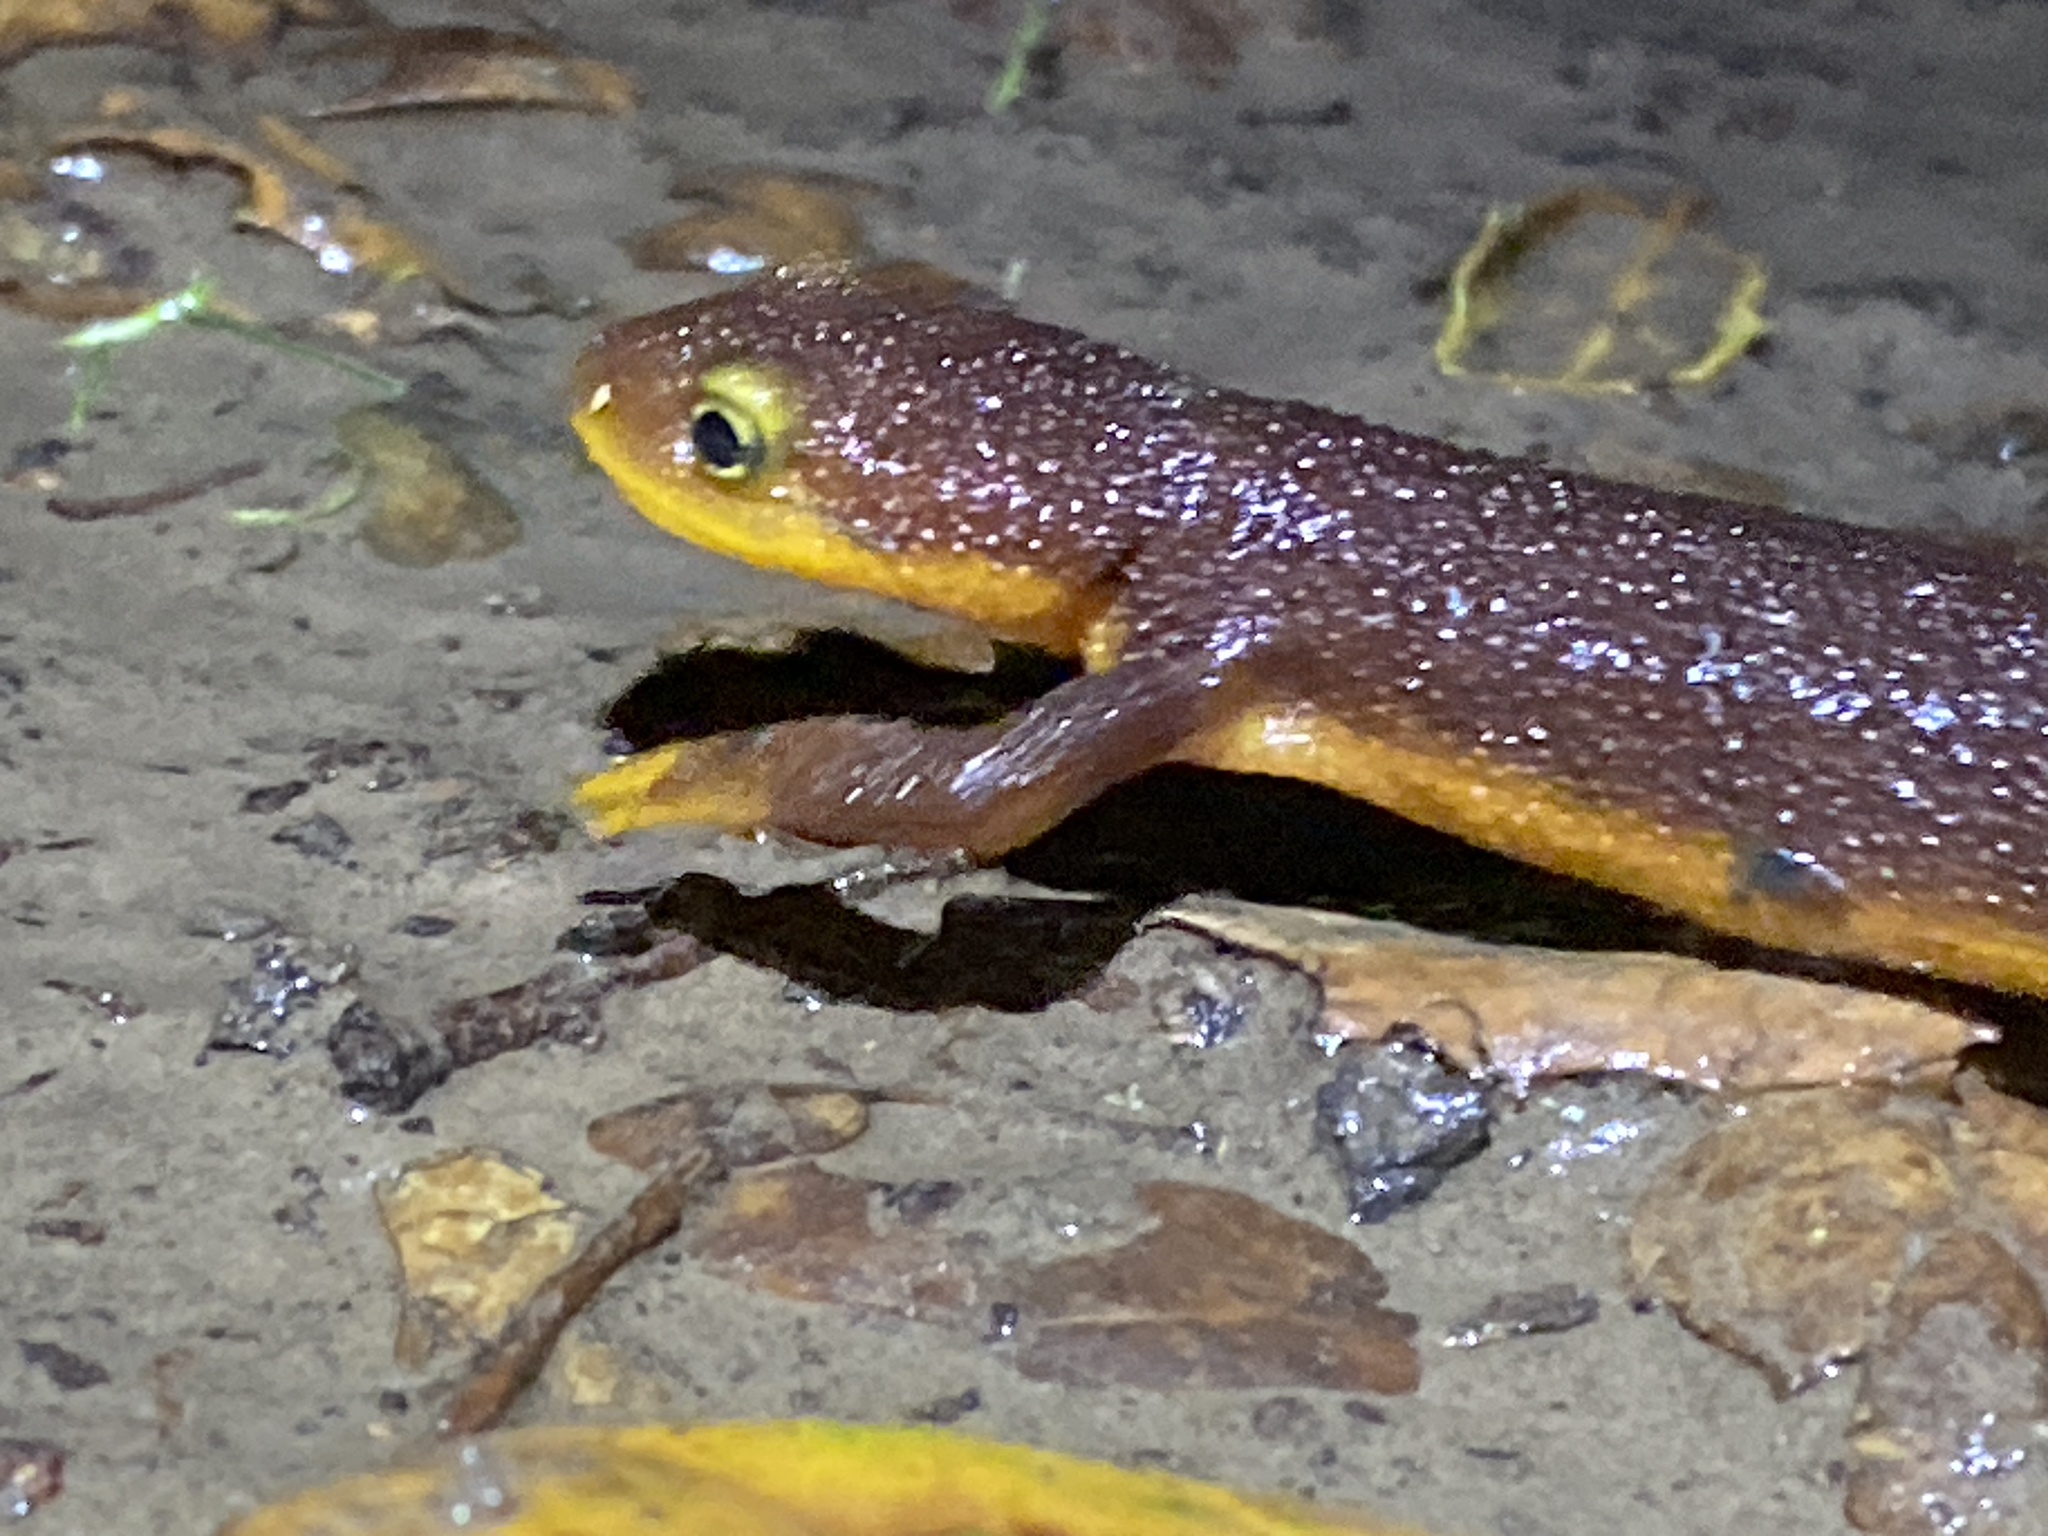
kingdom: Animalia
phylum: Chordata
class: Amphibia
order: Caudata
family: Salamandridae
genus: Taricha
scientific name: Taricha torosa
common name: California newt
